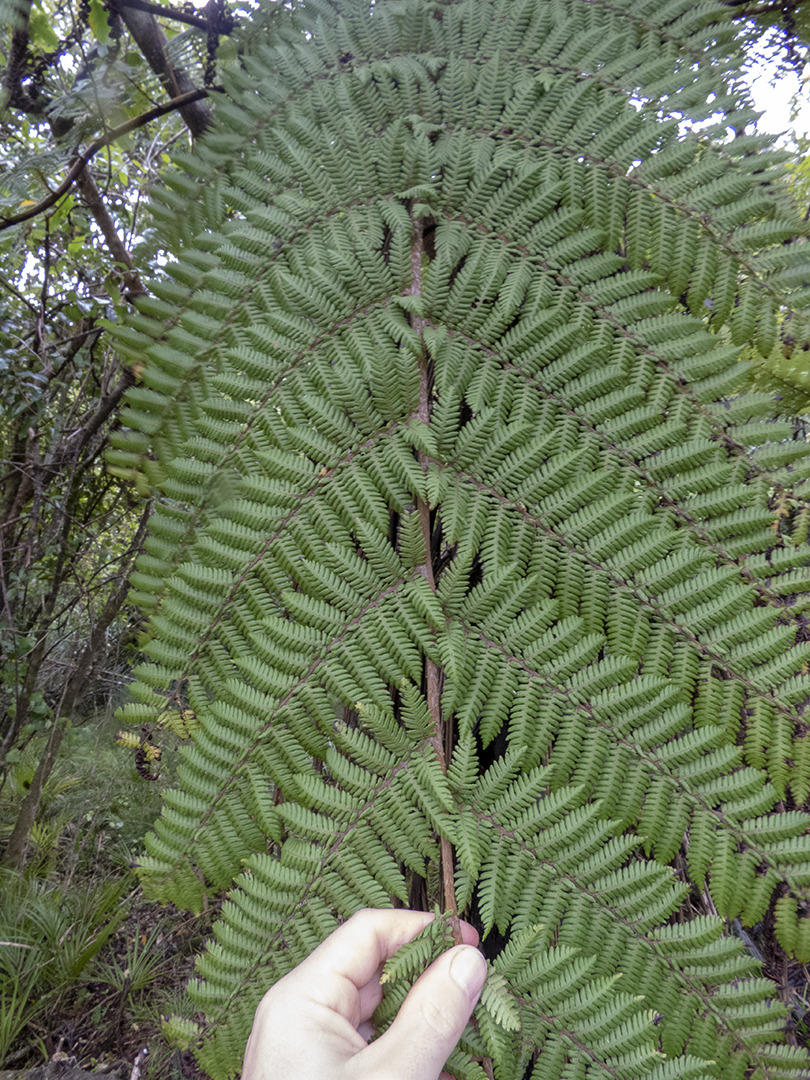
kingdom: Plantae
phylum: Tracheophyta
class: Polypodiopsida
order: Cyatheales
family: Cyatheaceae
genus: Alsophila
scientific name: Alsophila smithii
